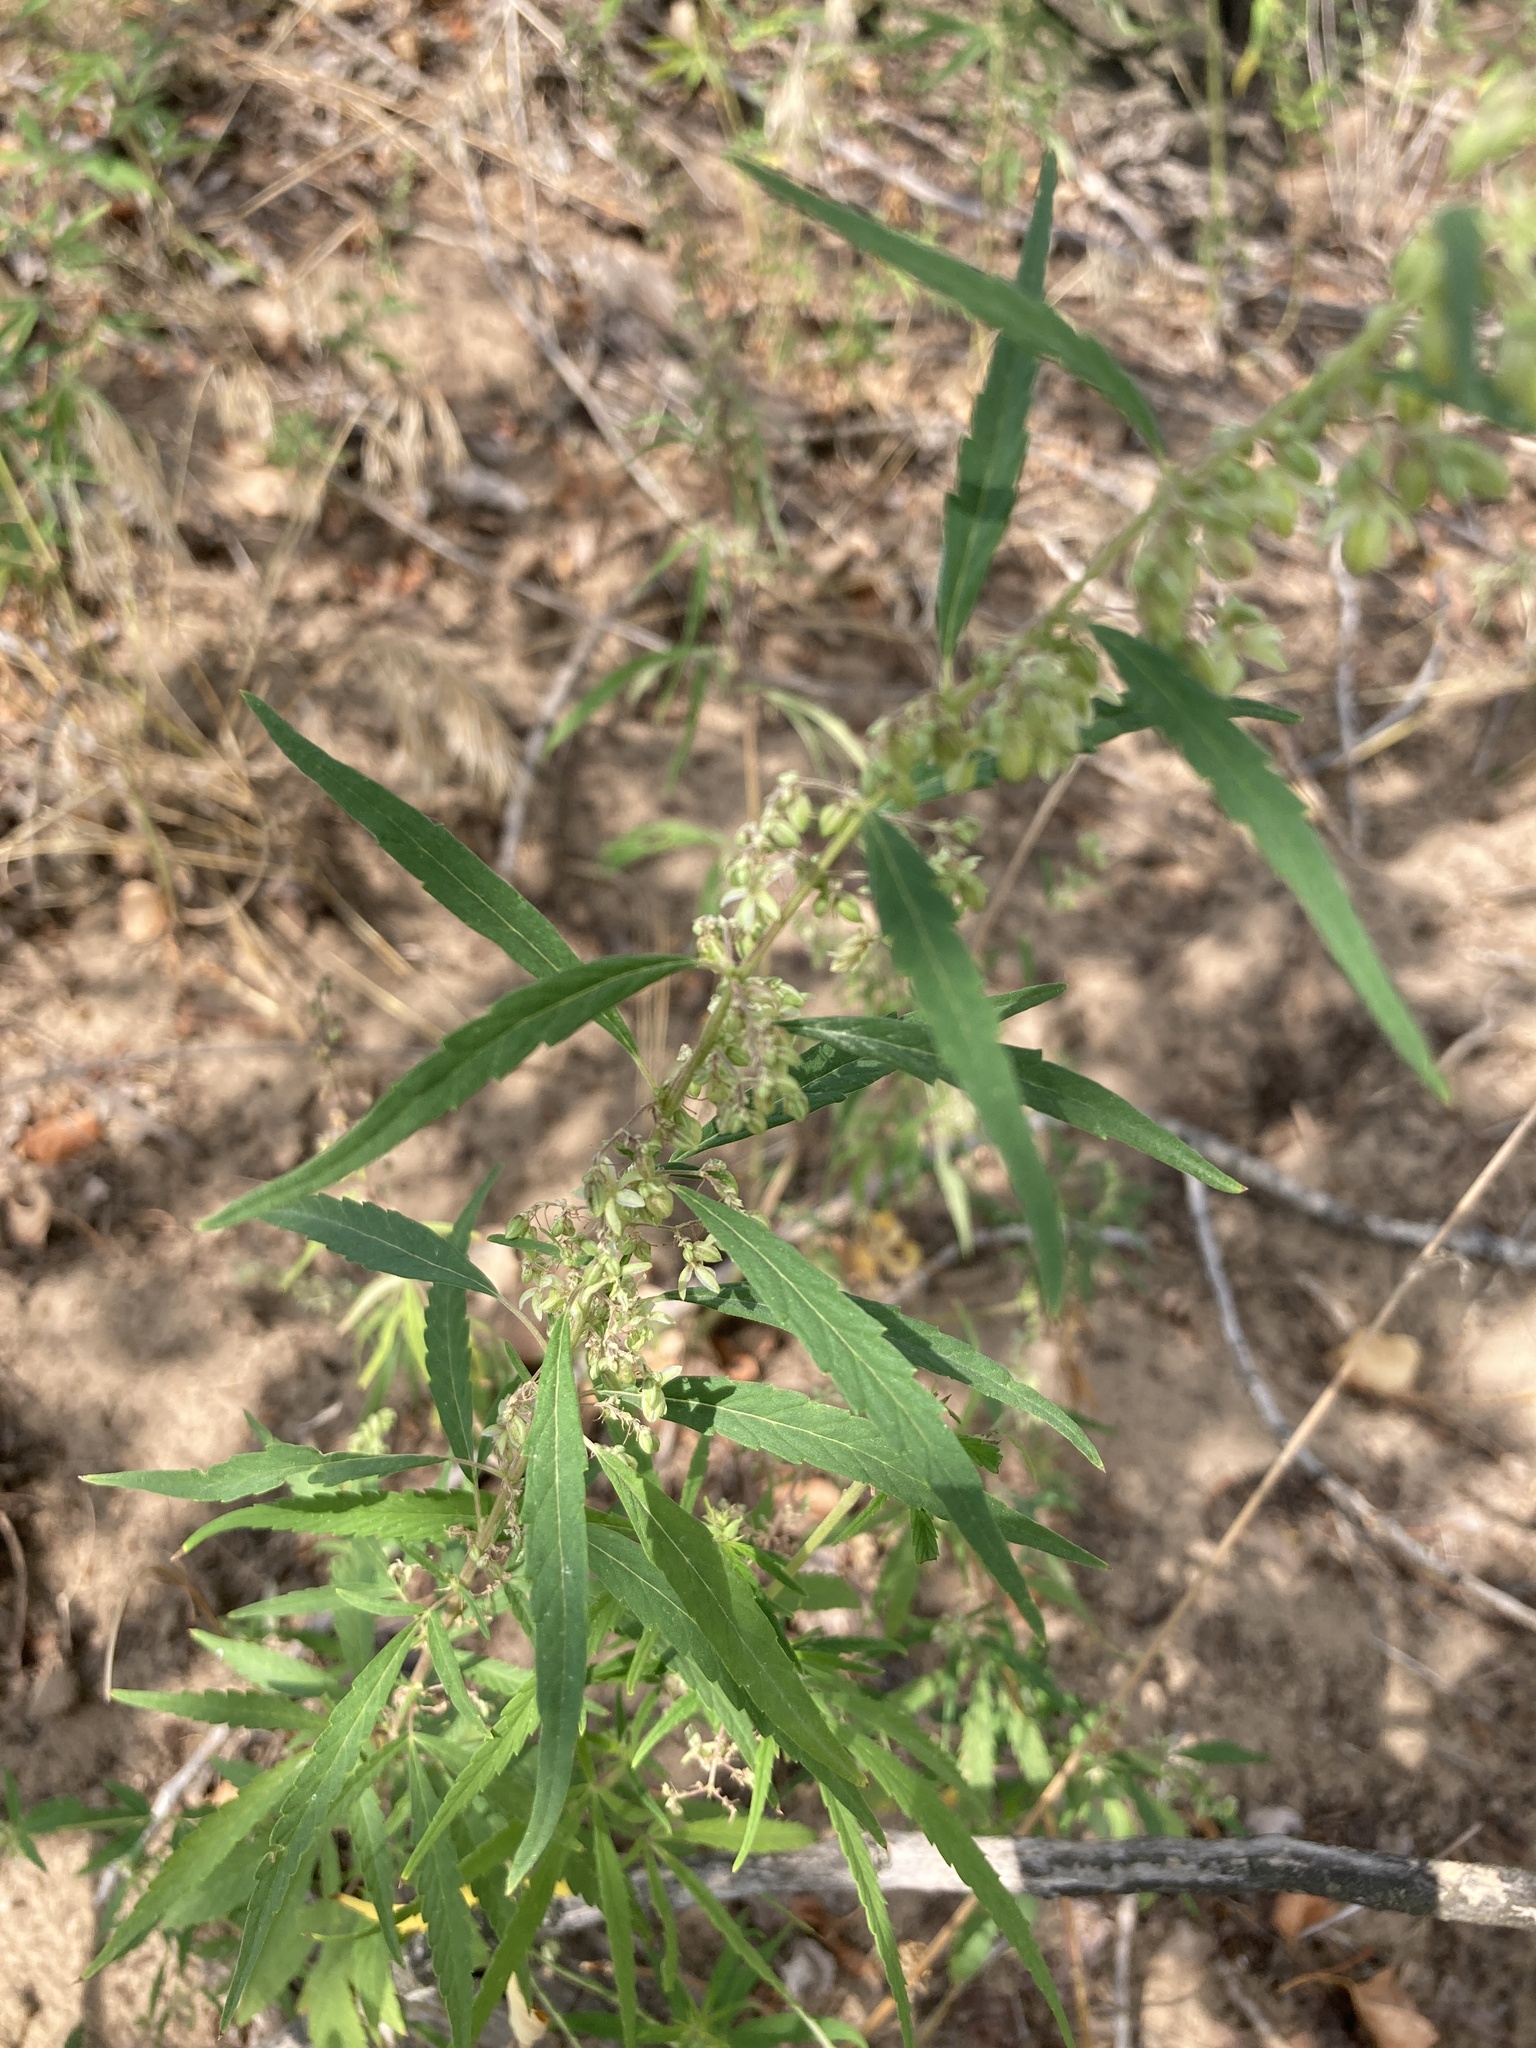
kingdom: Plantae
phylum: Tracheophyta
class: Magnoliopsida
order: Rosales
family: Cannabaceae
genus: Cannabis
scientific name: Cannabis sativa
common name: Hemp
